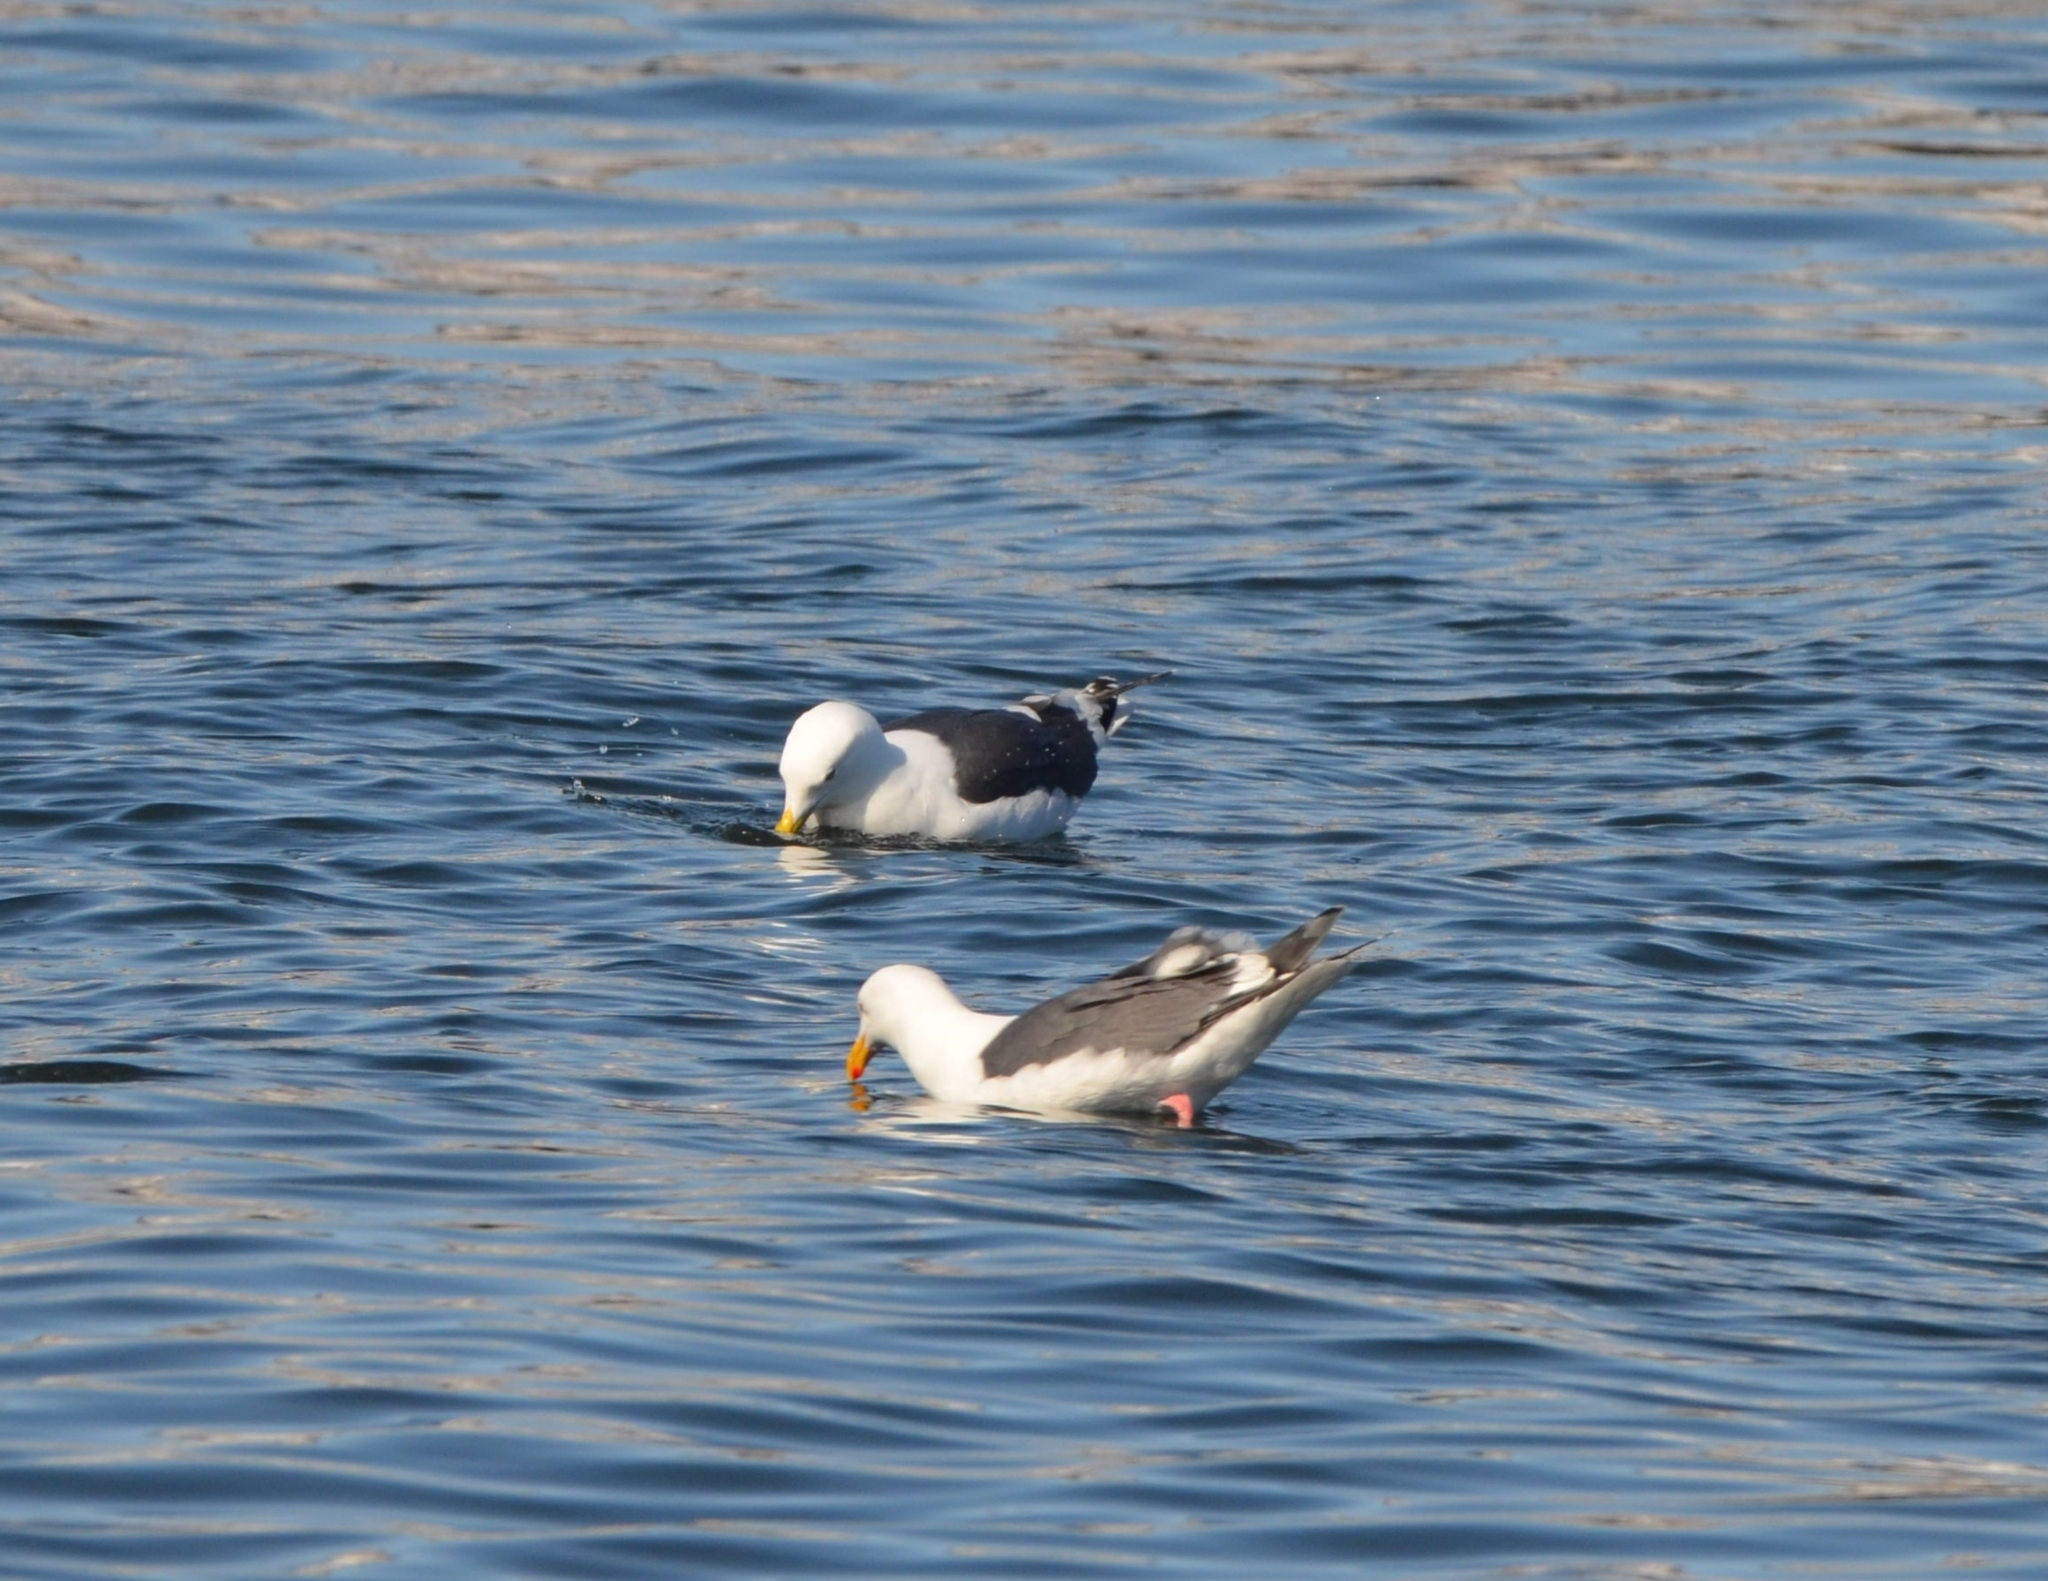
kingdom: Animalia
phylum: Chordata
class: Aves
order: Charadriiformes
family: Laridae
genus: Larus
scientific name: Larus schistisagus
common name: Slaty-backed gull
